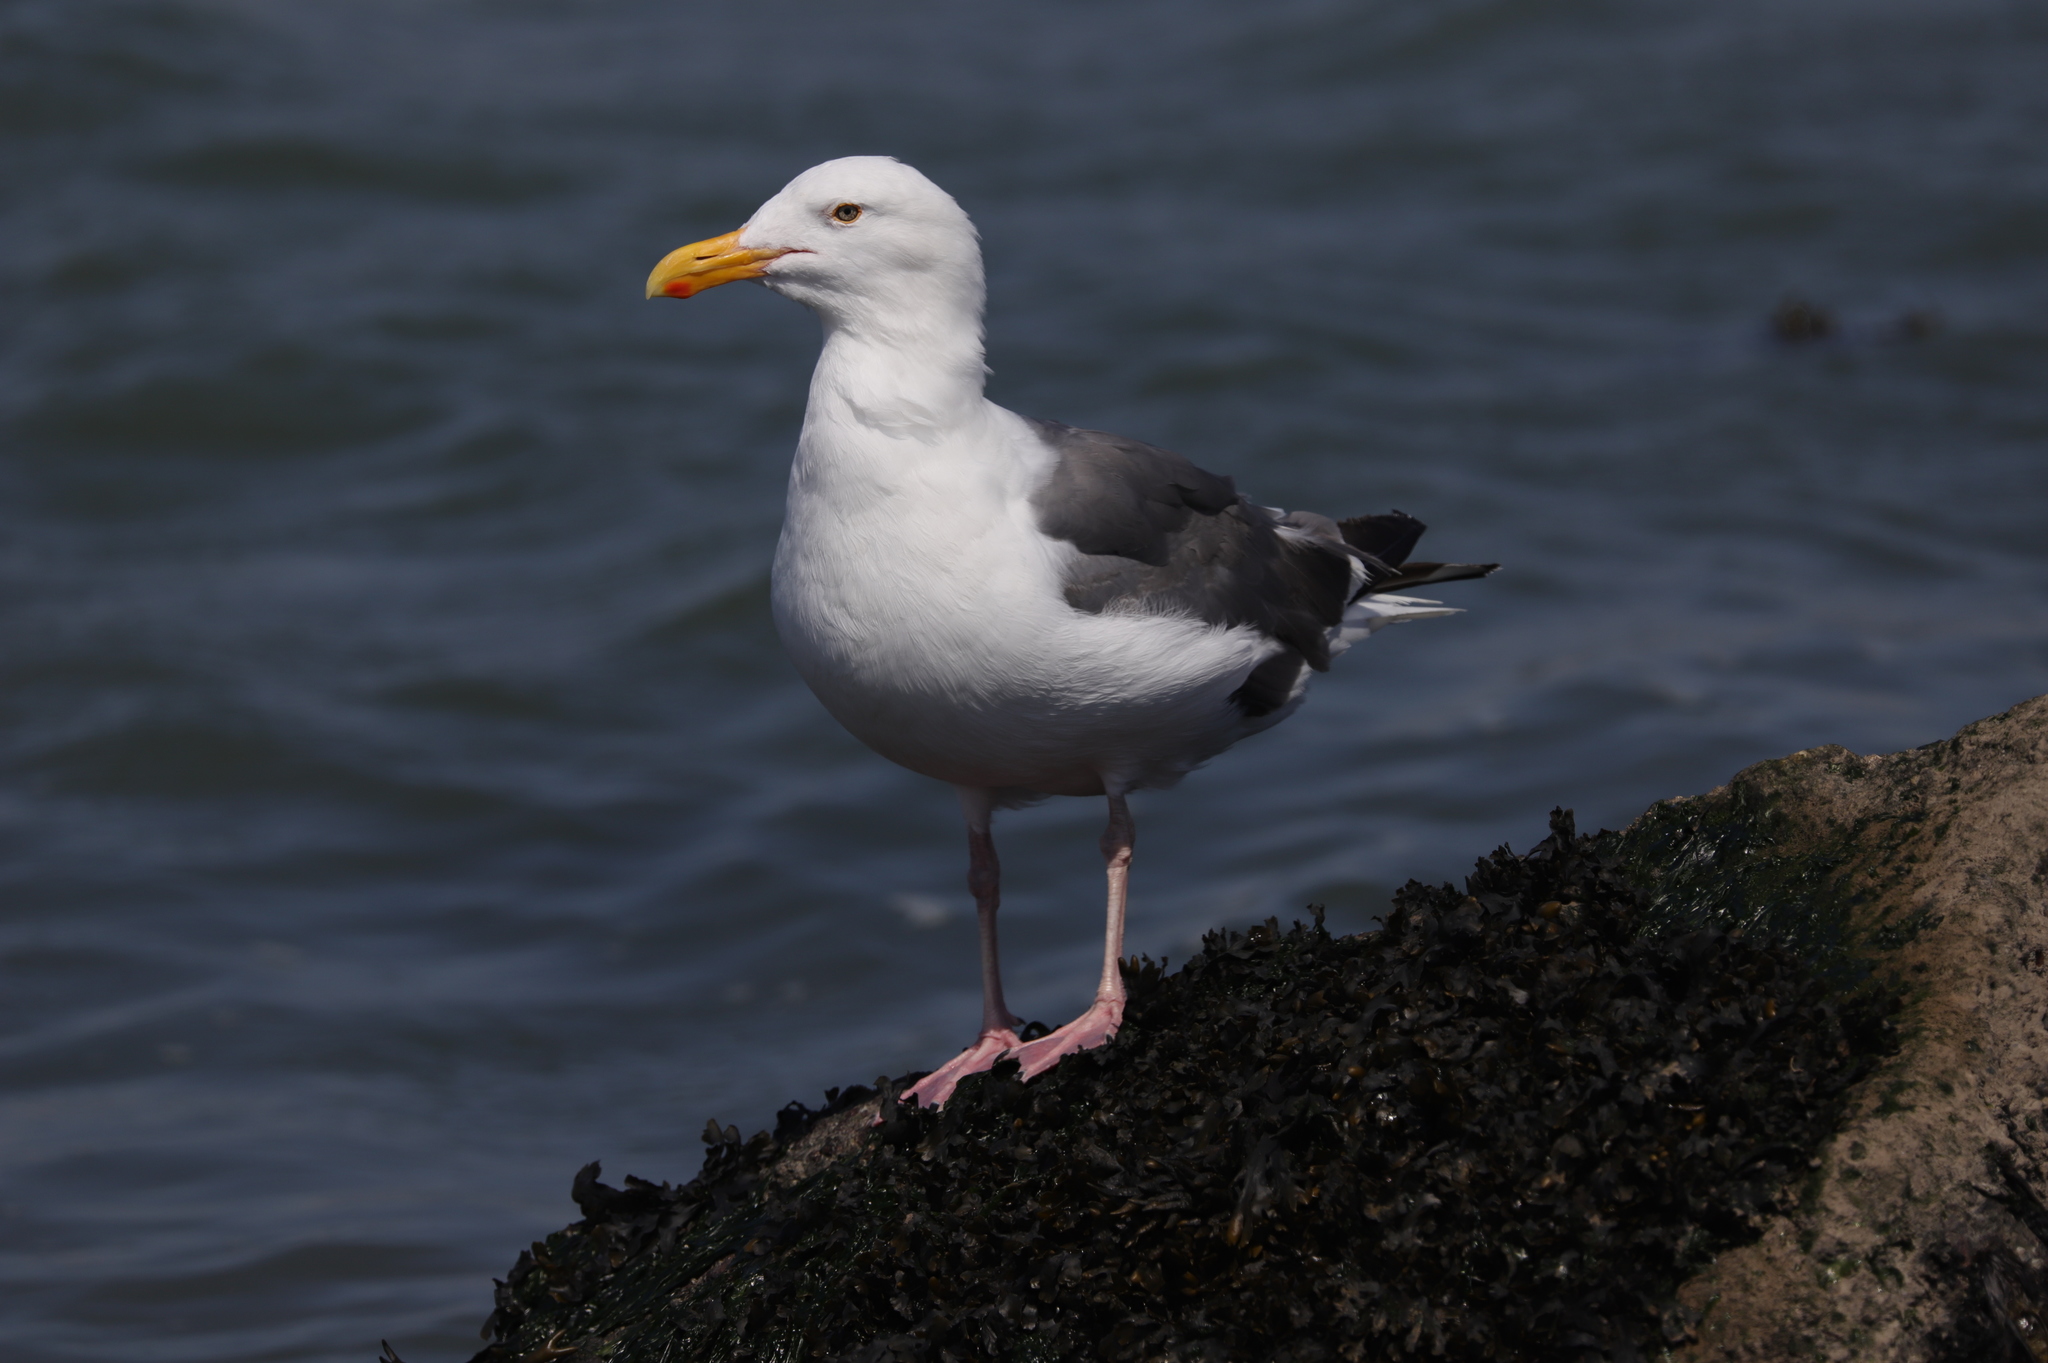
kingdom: Animalia
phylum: Chordata
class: Aves
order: Charadriiformes
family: Laridae
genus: Larus
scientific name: Larus occidentalis
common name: Western gull
